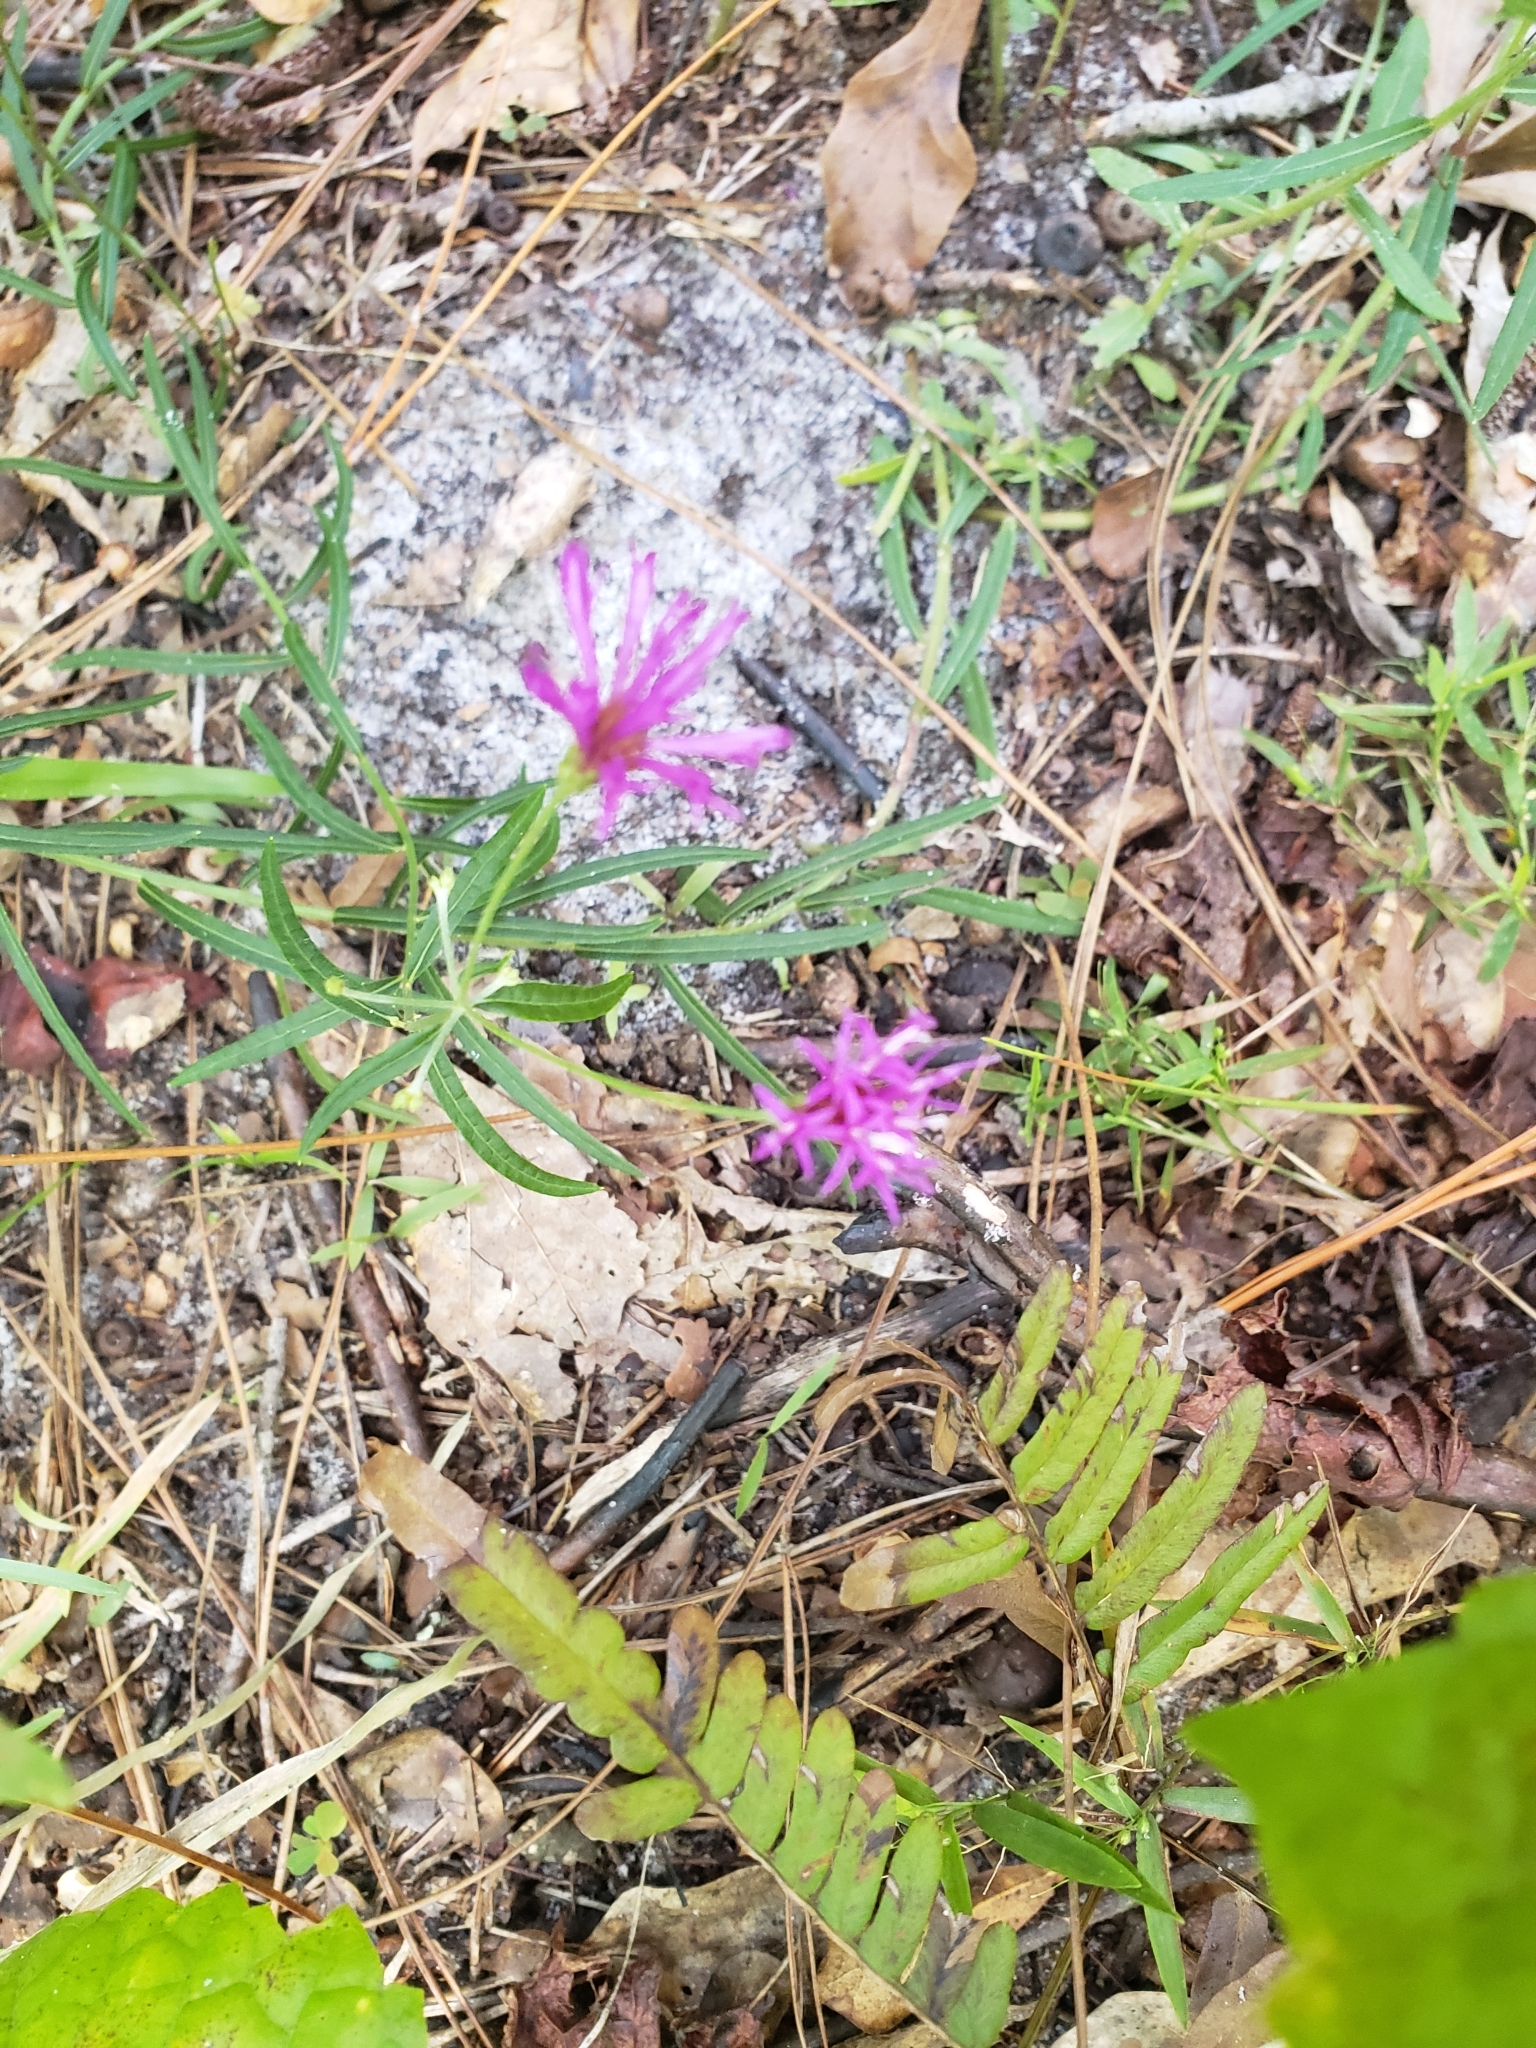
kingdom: Plantae
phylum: Tracheophyta
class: Magnoliopsida
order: Asterales
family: Asteraceae
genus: Vernonia
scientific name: Vernonia angustifolia
